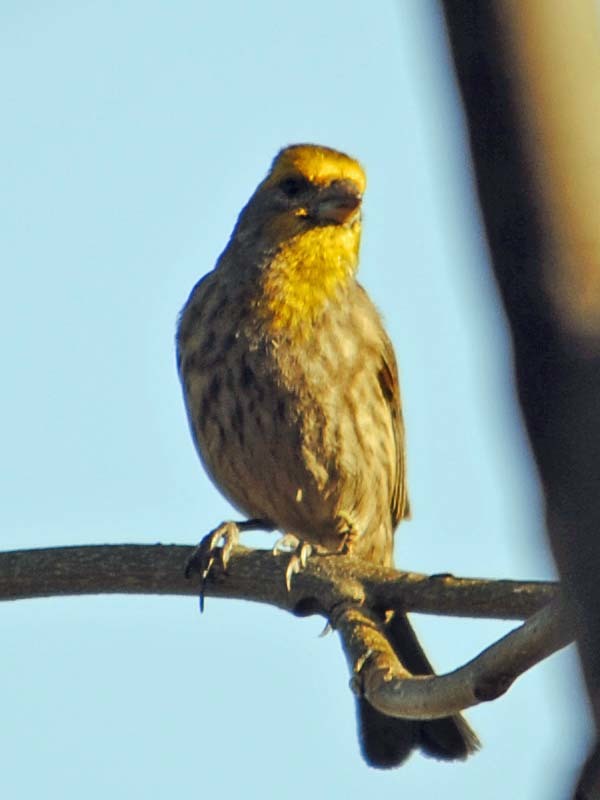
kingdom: Animalia
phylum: Chordata
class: Aves
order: Passeriformes
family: Fringillidae
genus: Haemorhous
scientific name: Haemorhous mexicanus
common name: House finch
